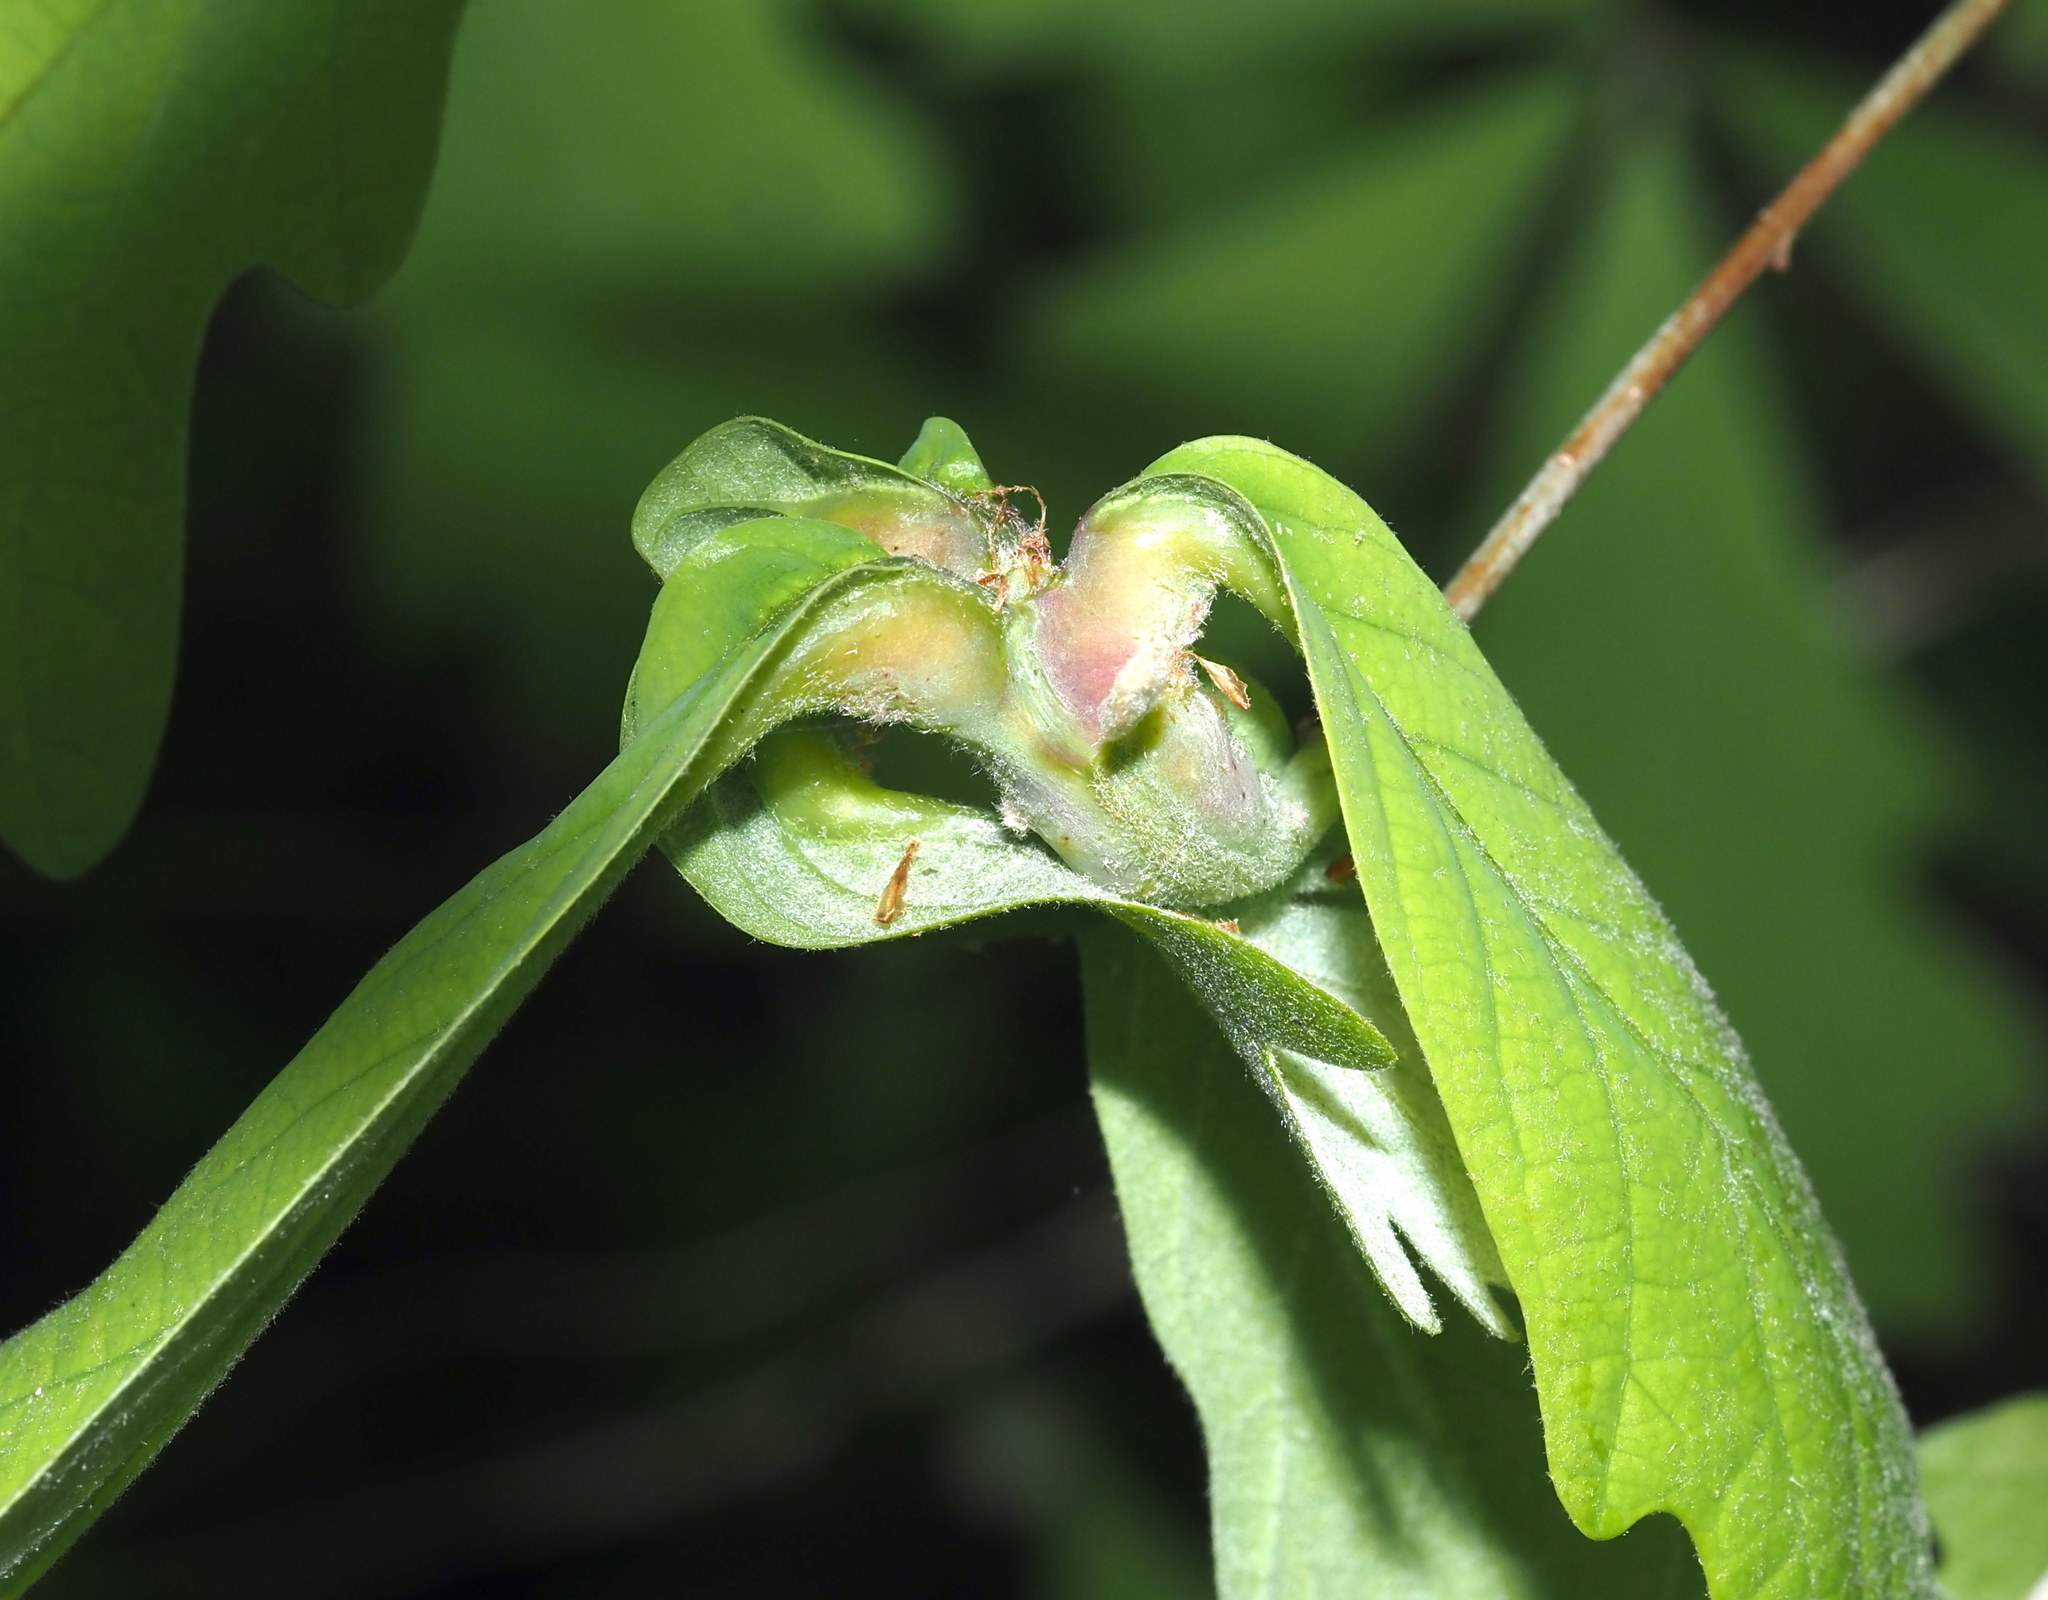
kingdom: Animalia
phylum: Arthropoda
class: Insecta
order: Hymenoptera
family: Cynipidae
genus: Neuroterus
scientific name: Neuroterus quercusbaccarum
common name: Common spangle gall
